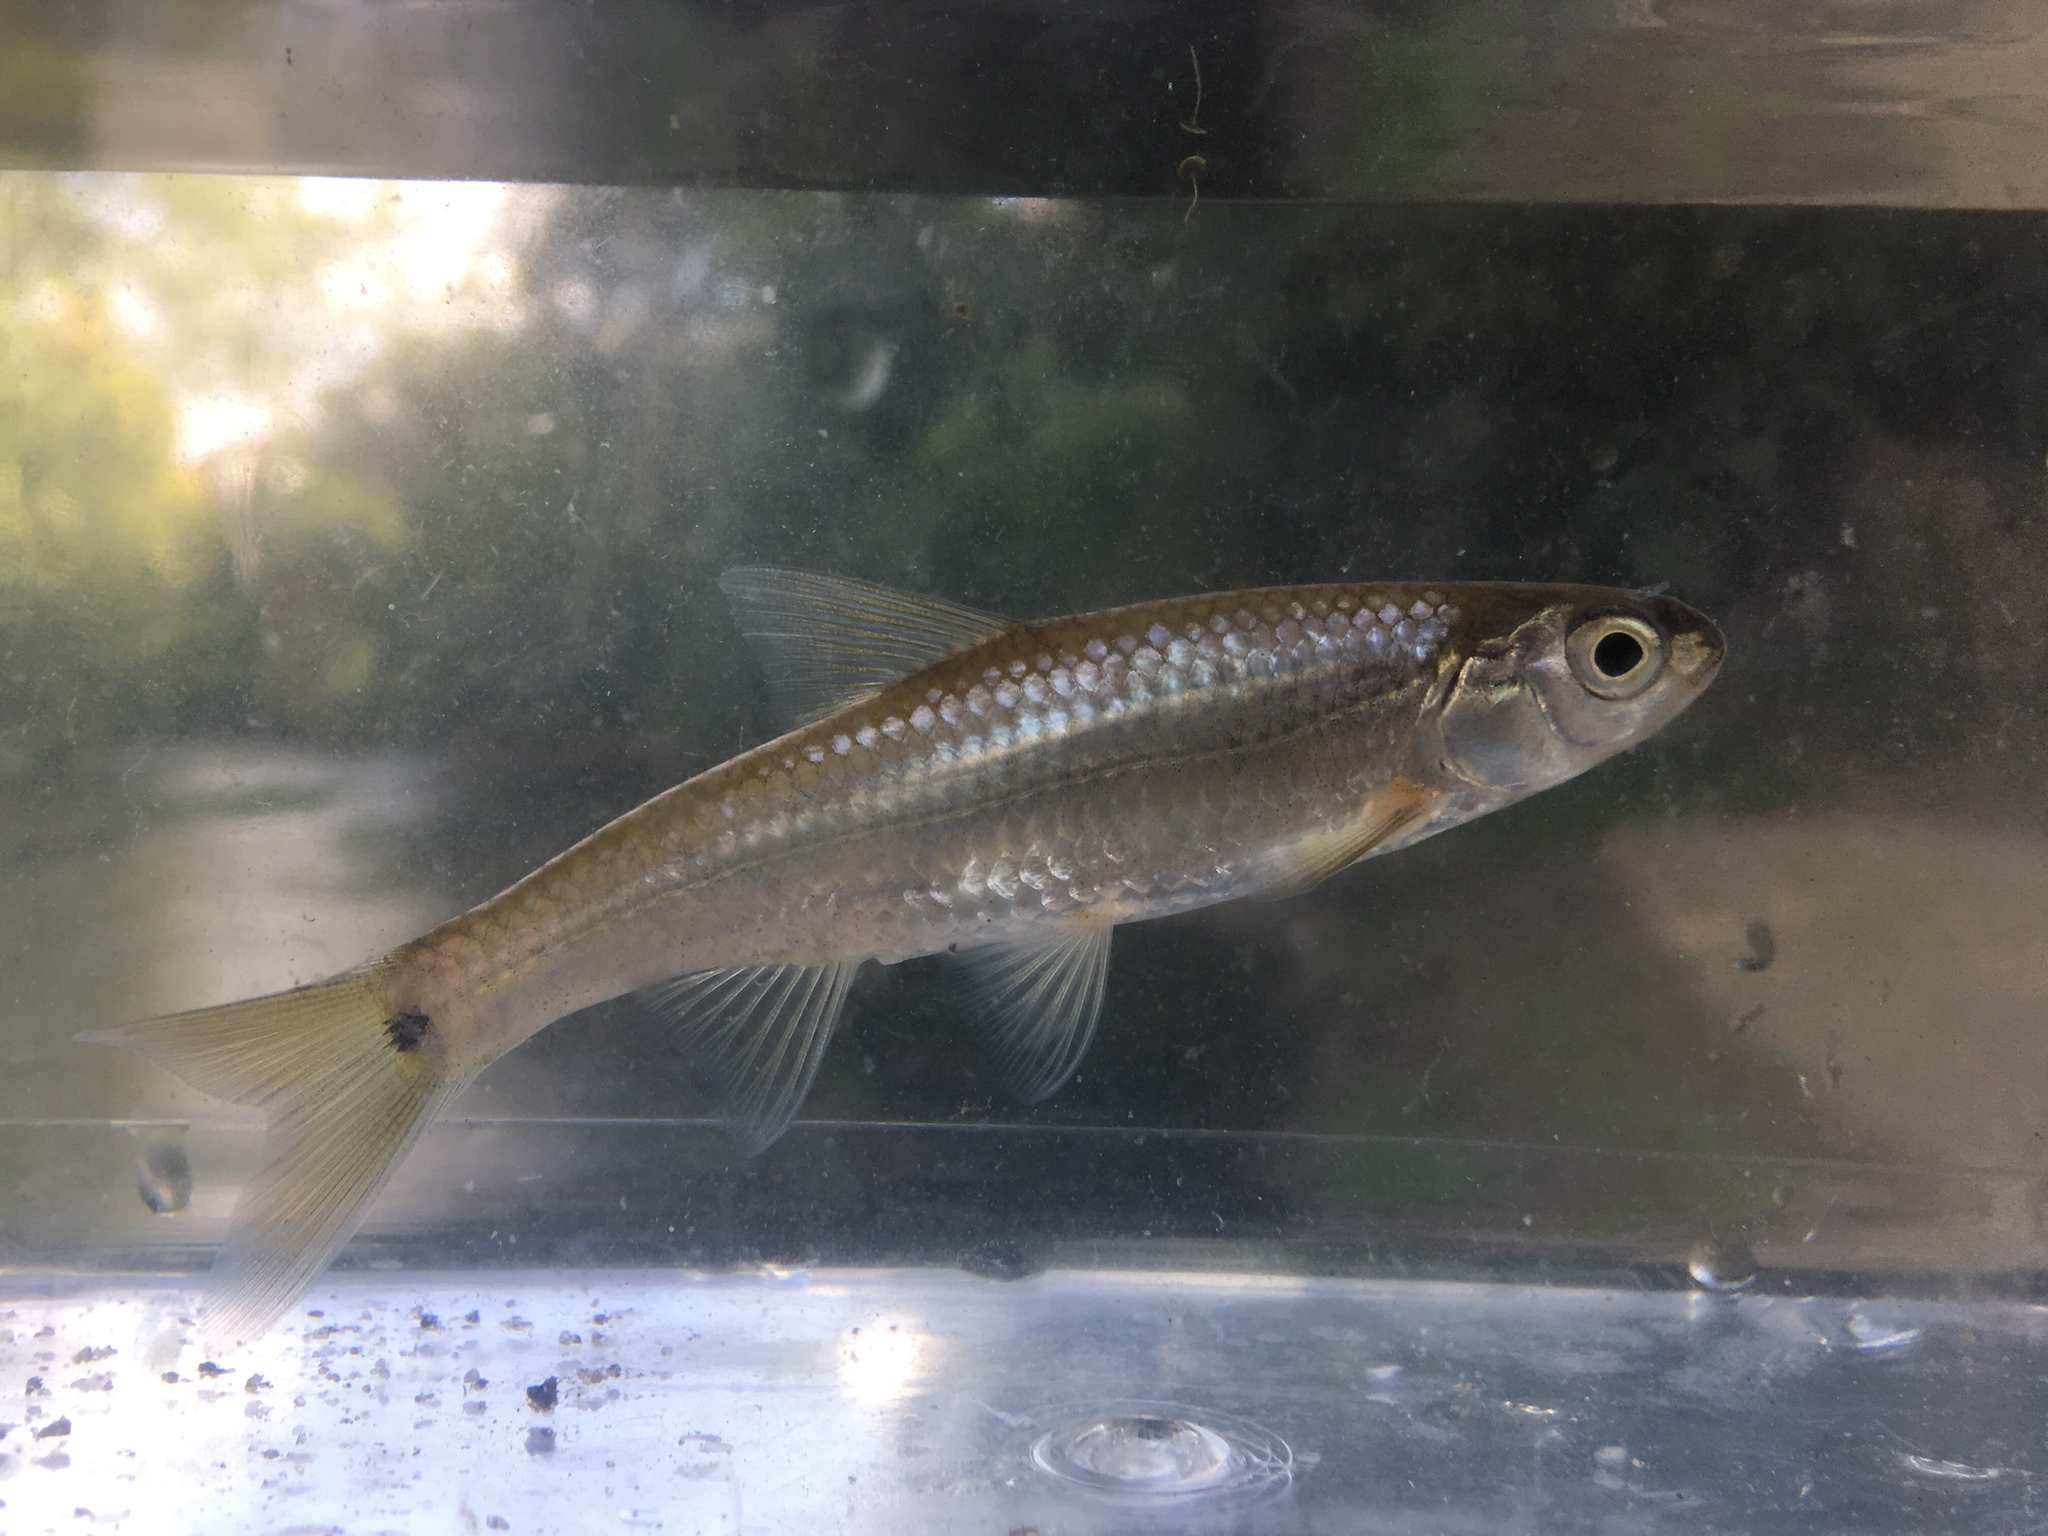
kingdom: Animalia
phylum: Chordata
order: Cypriniformes
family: Cyprinidae
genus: Notropis
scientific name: Notropis
